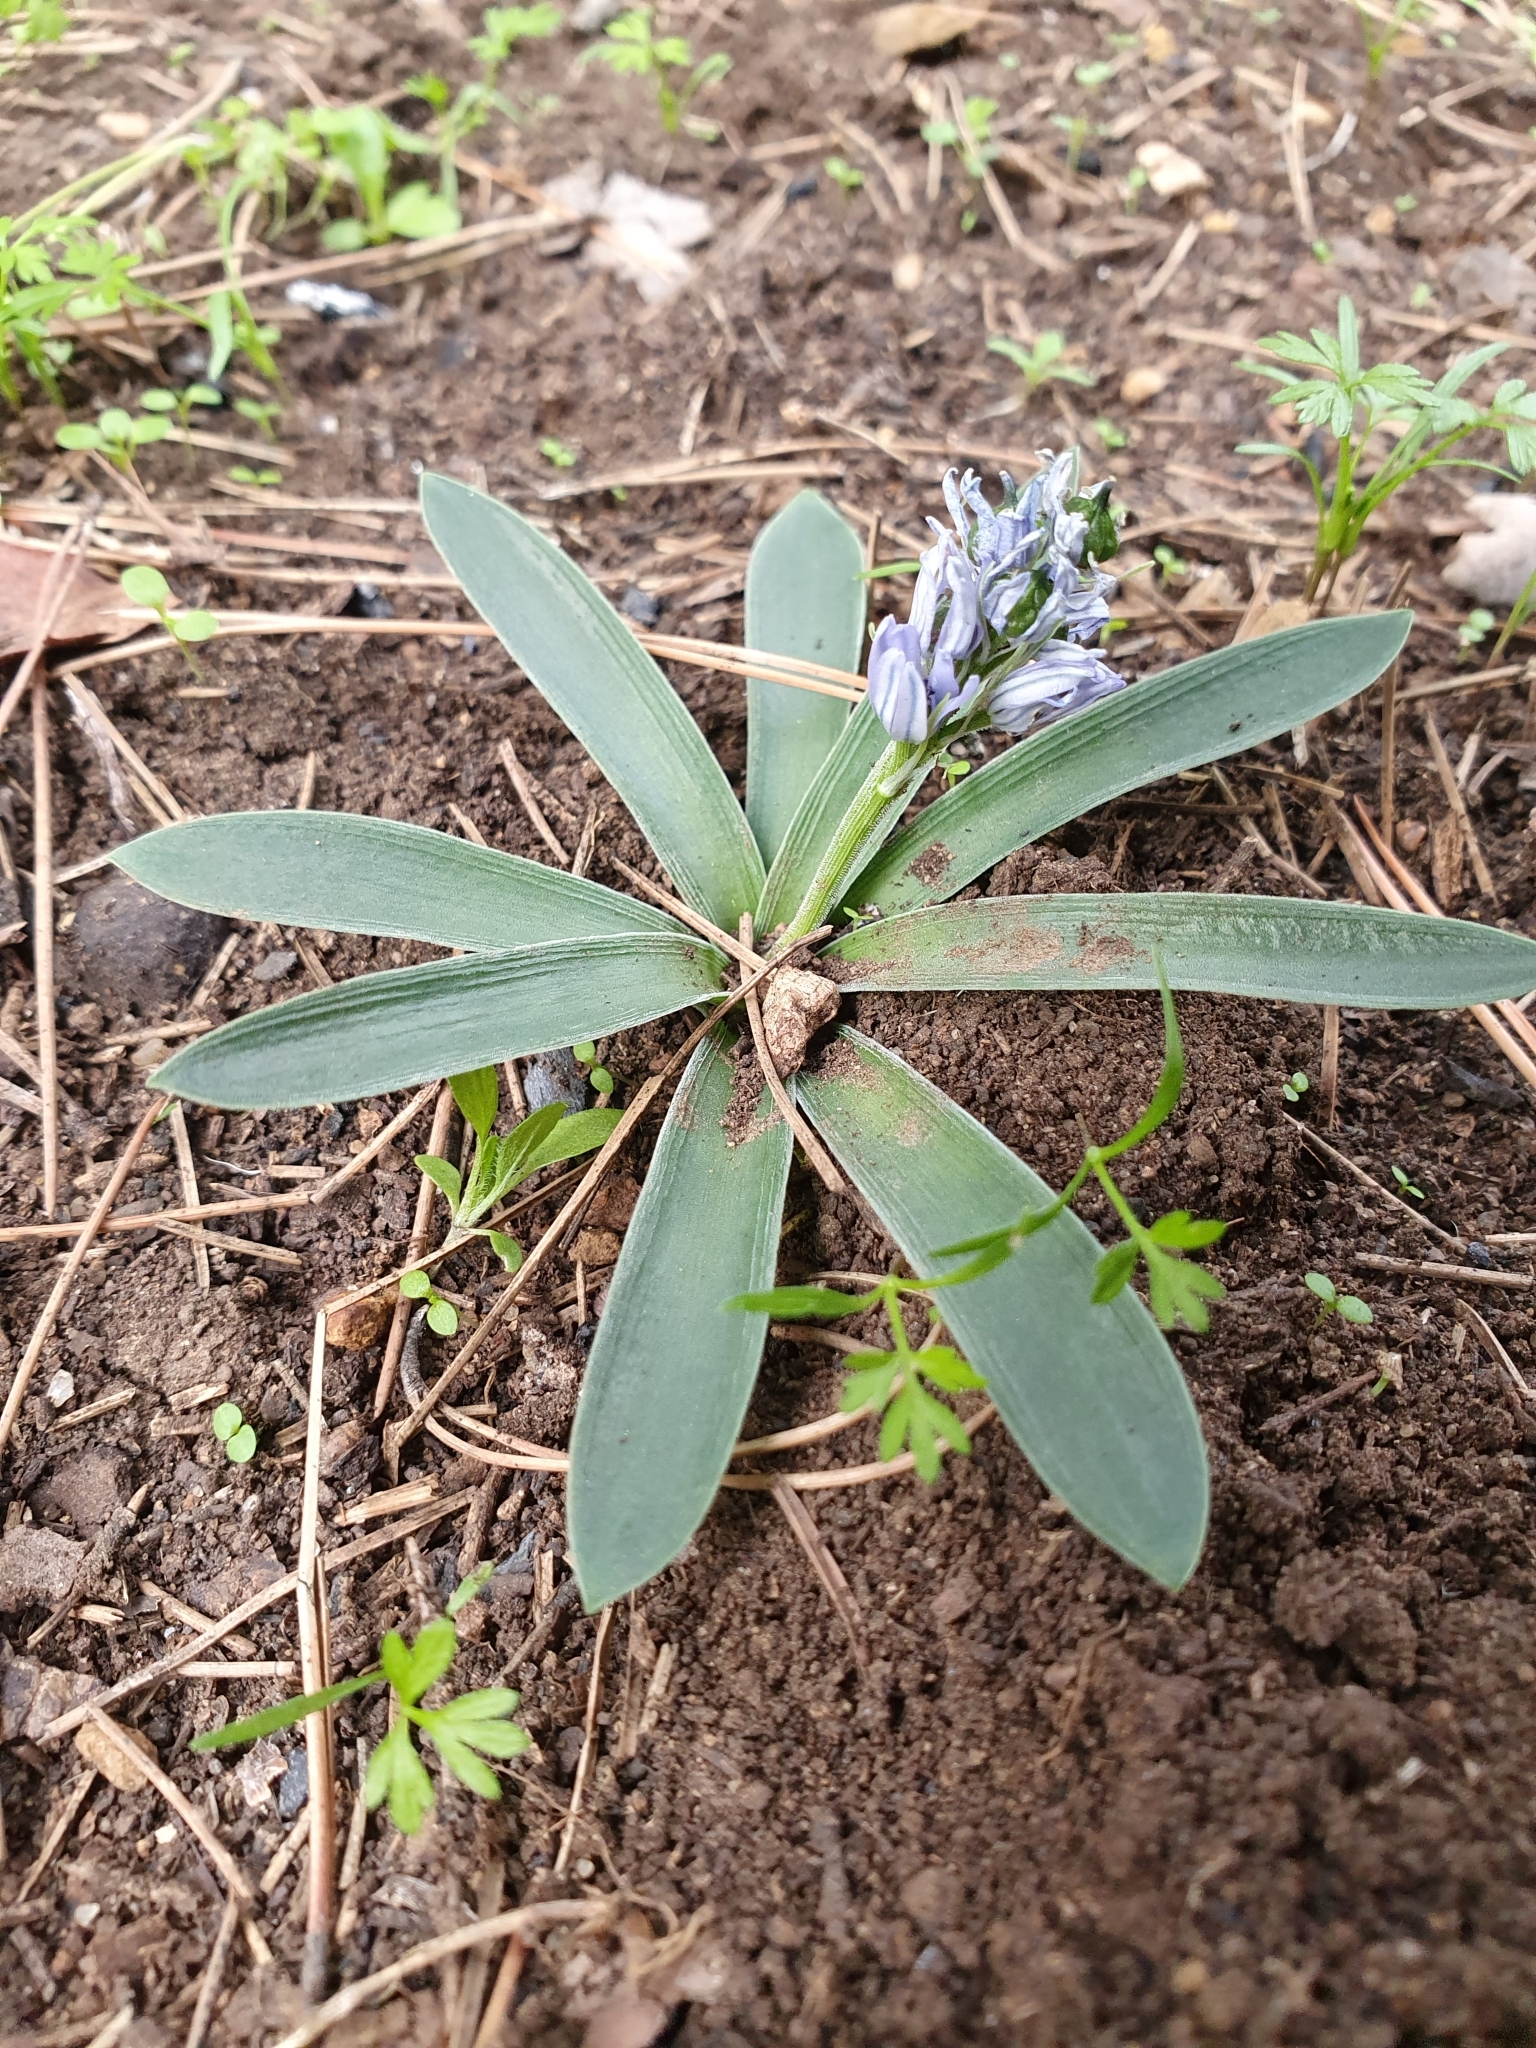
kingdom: Plantae
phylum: Tracheophyta
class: Liliopsida
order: Asparagales
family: Asparagaceae
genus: Hyacinthoides
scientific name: Hyacinthoides lingulata
